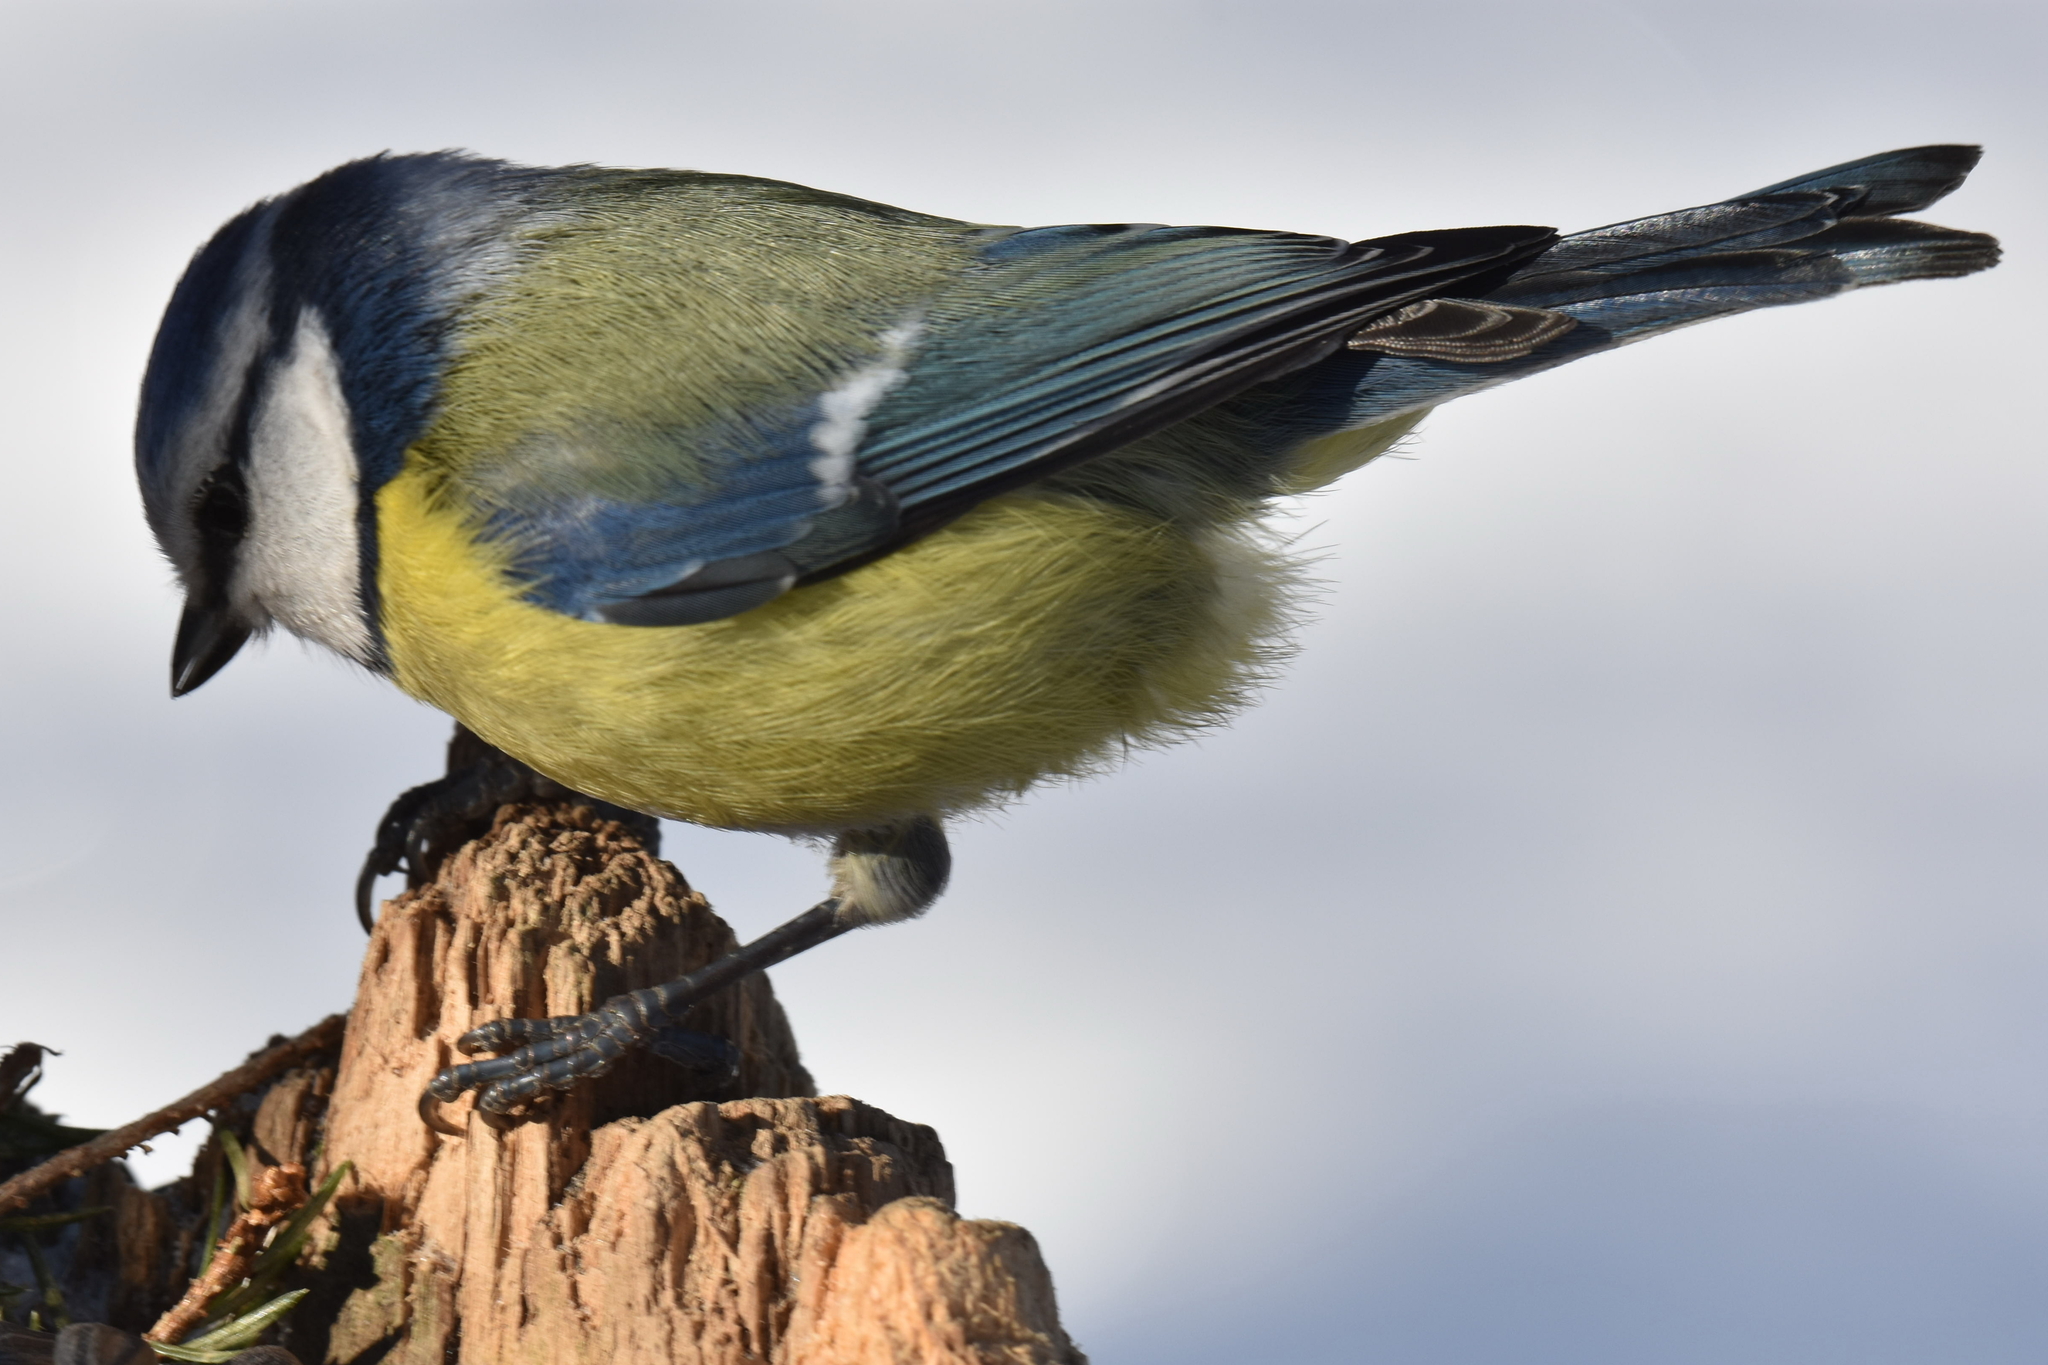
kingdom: Animalia
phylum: Chordata
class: Aves
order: Passeriformes
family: Paridae
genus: Cyanistes
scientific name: Cyanistes caeruleus
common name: Eurasian blue tit
